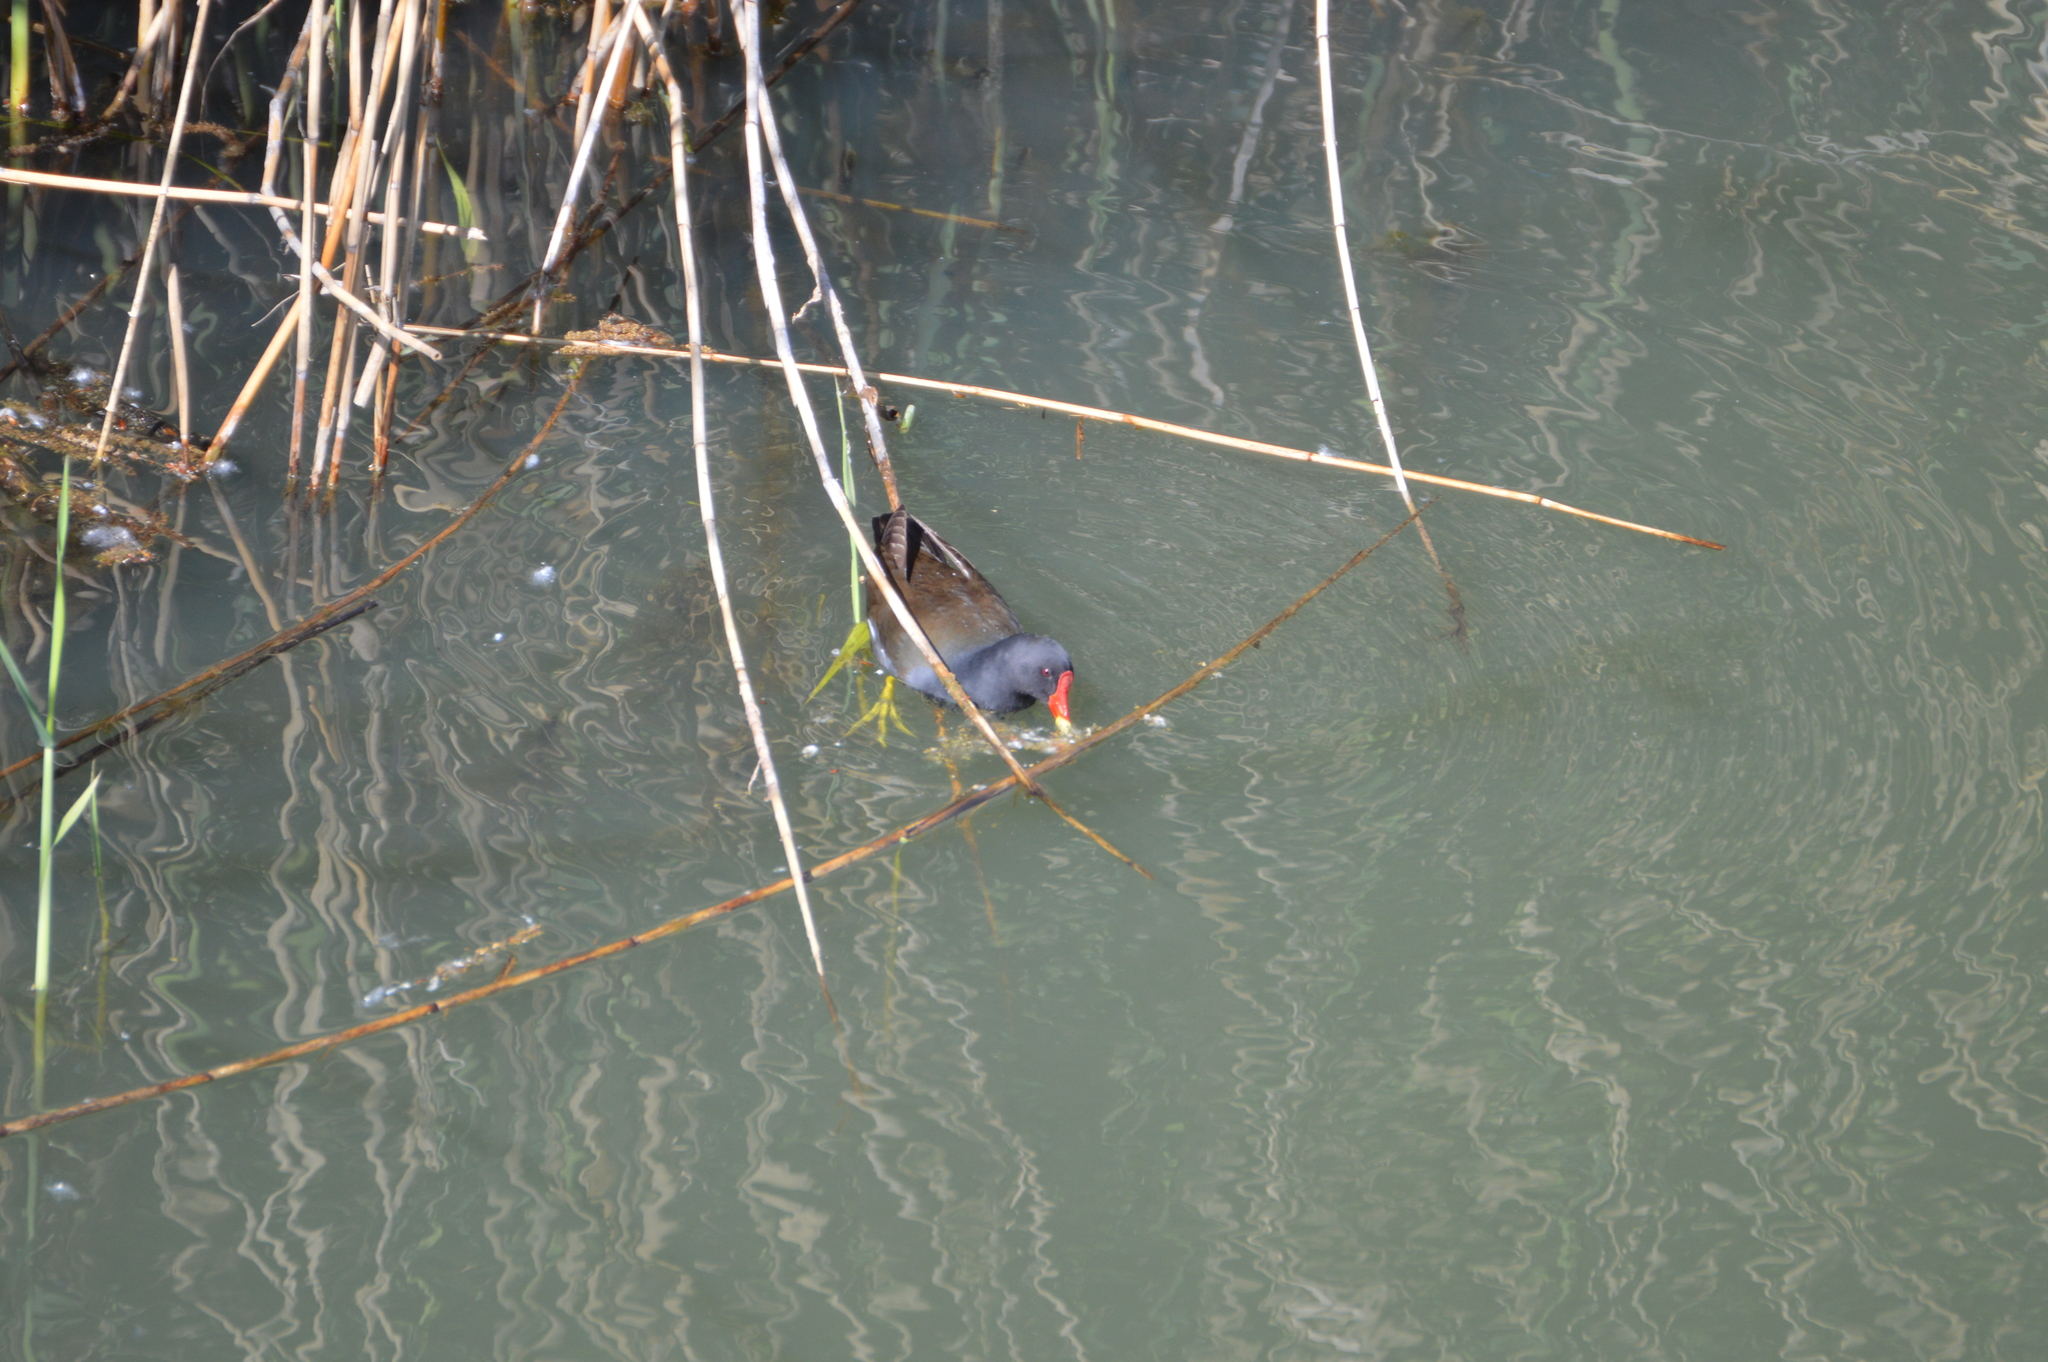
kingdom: Animalia
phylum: Chordata
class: Aves
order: Gruiformes
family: Rallidae
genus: Gallinula
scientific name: Gallinula chloropus
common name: Common moorhen
